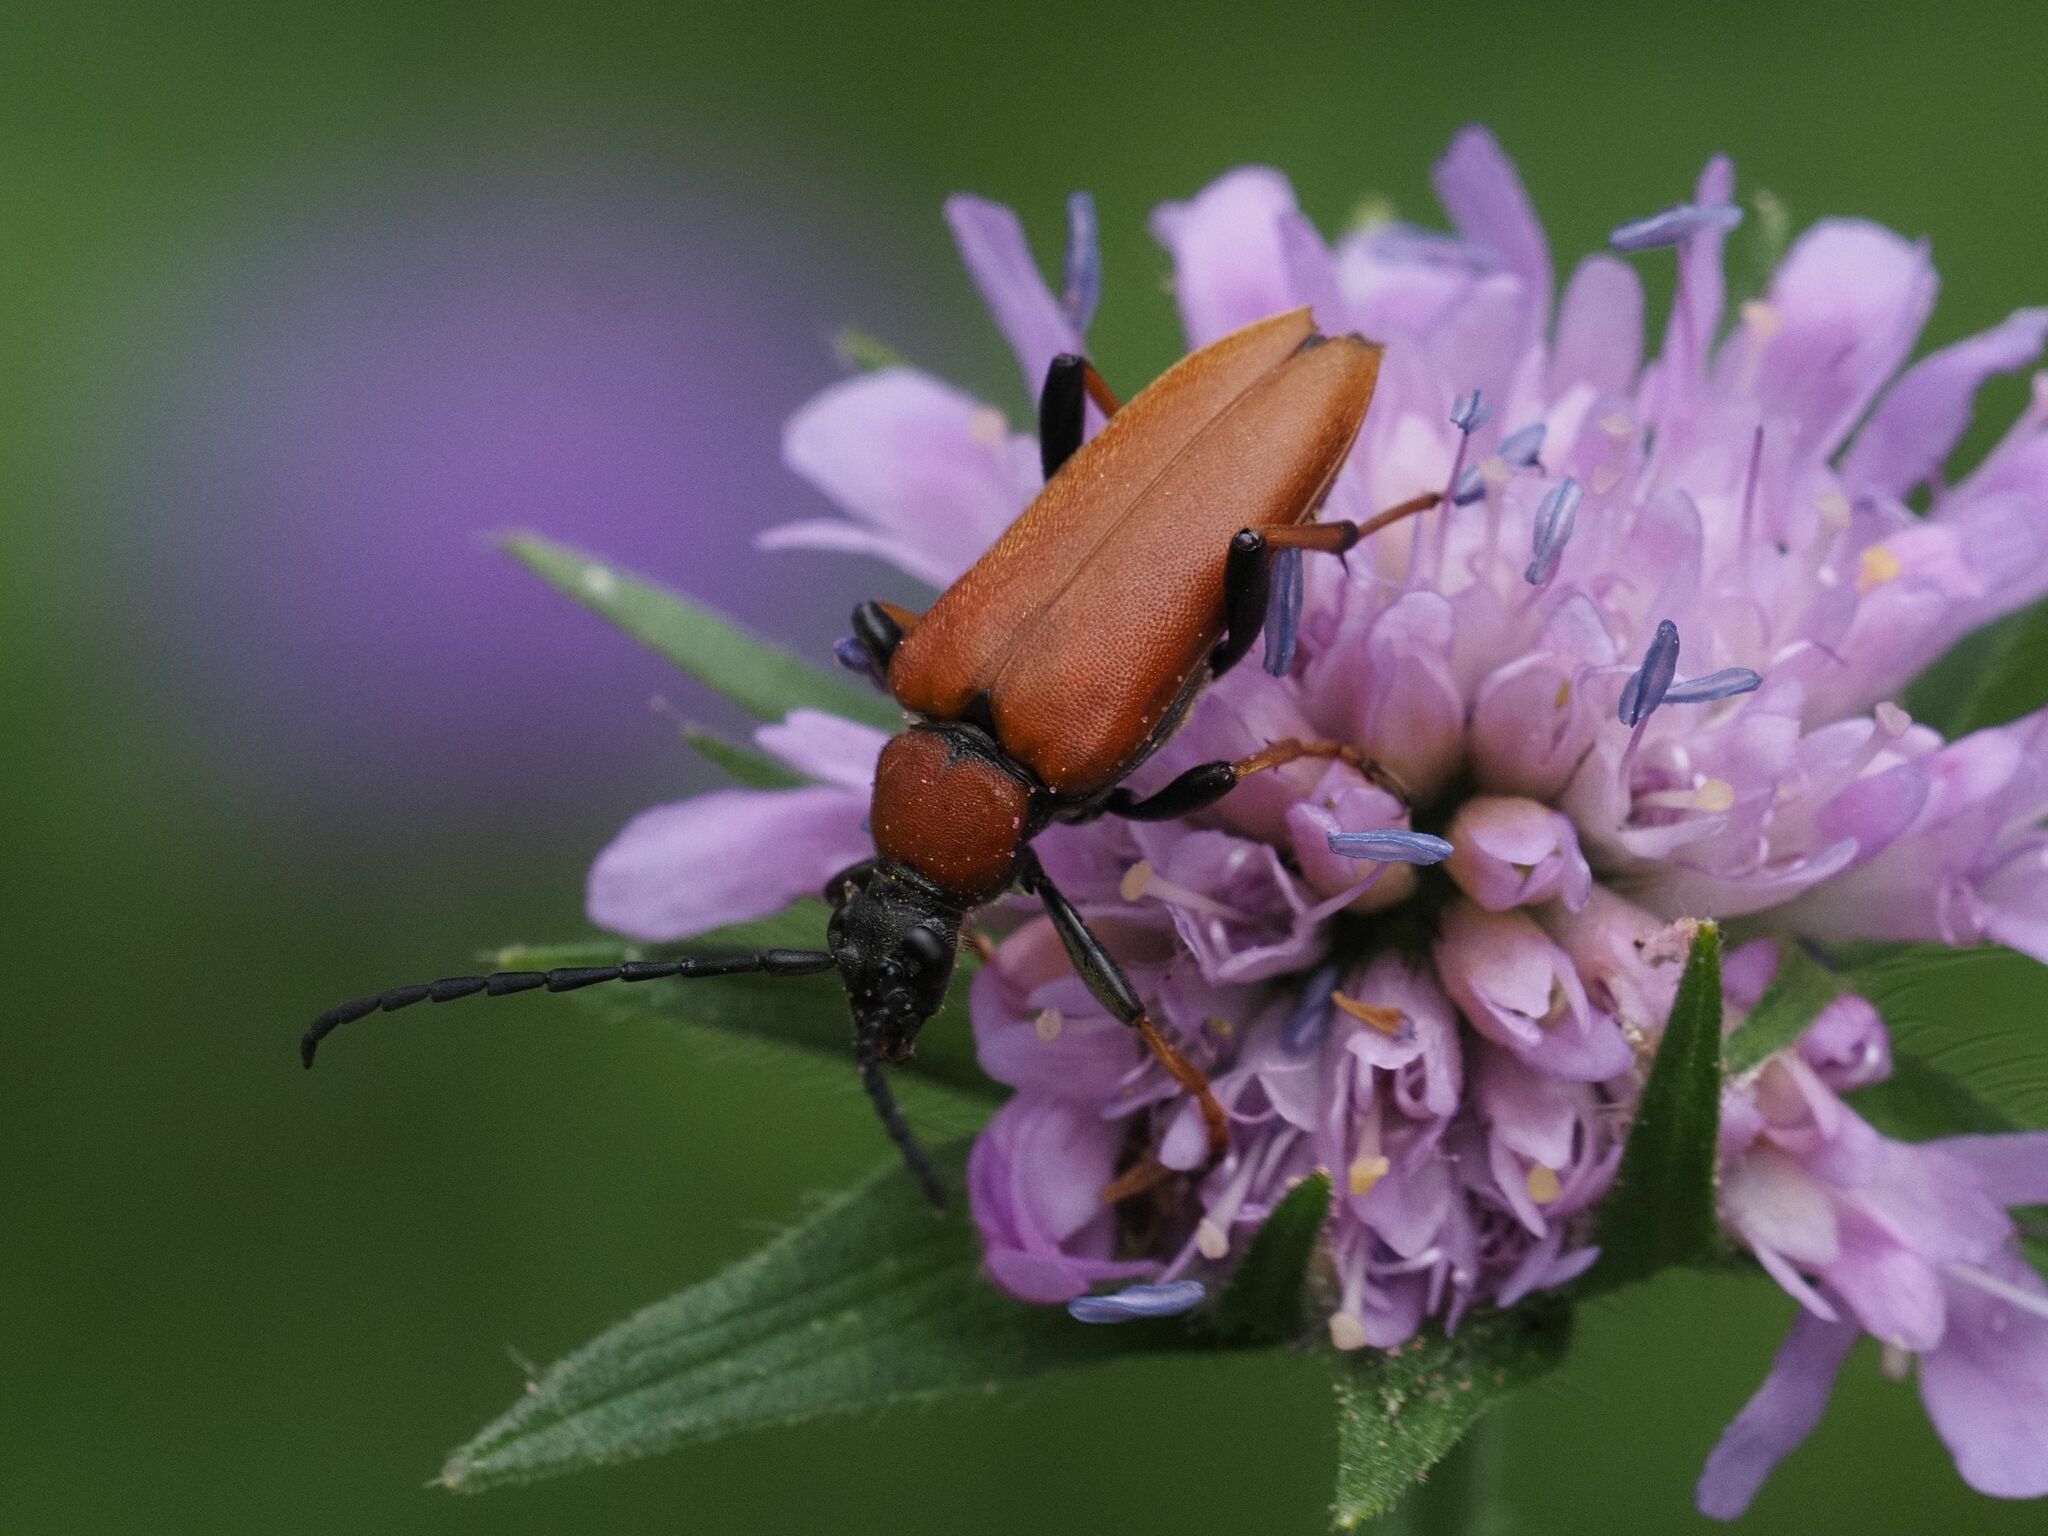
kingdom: Animalia
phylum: Arthropoda
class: Insecta
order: Coleoptera
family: Cerambycidae
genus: Stictoleptura
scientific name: Stictoleptura rubra
